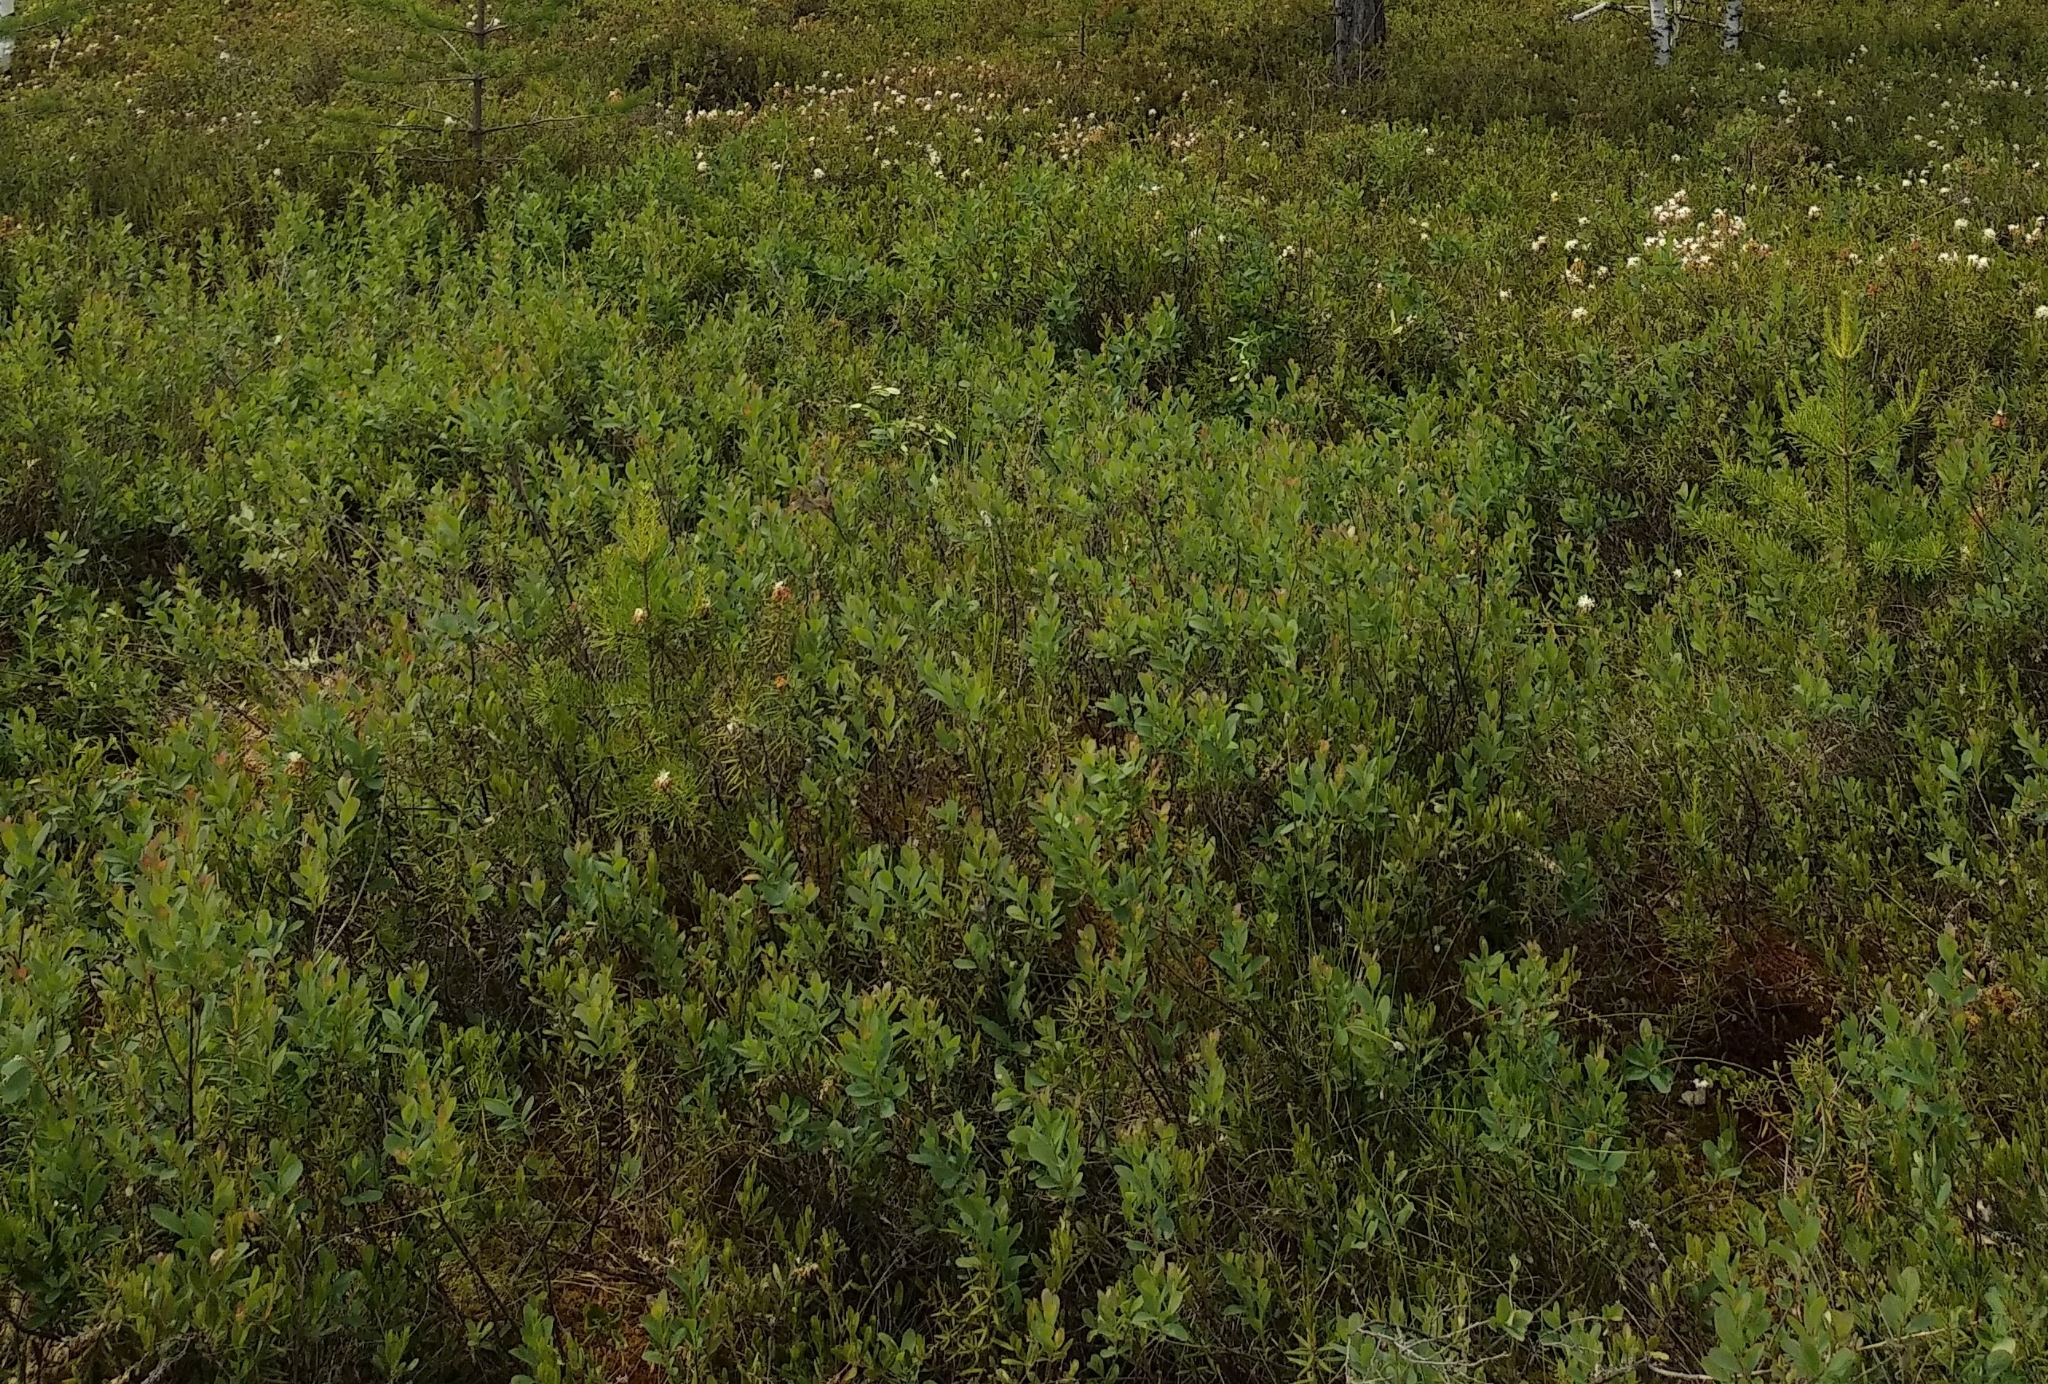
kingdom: Plantae
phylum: Tracheophyta
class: Magnoliopsida
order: Ericales
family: Ericaceae
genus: Vaccinium
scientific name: Vaccinium uliginosum
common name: Bog bilberry
